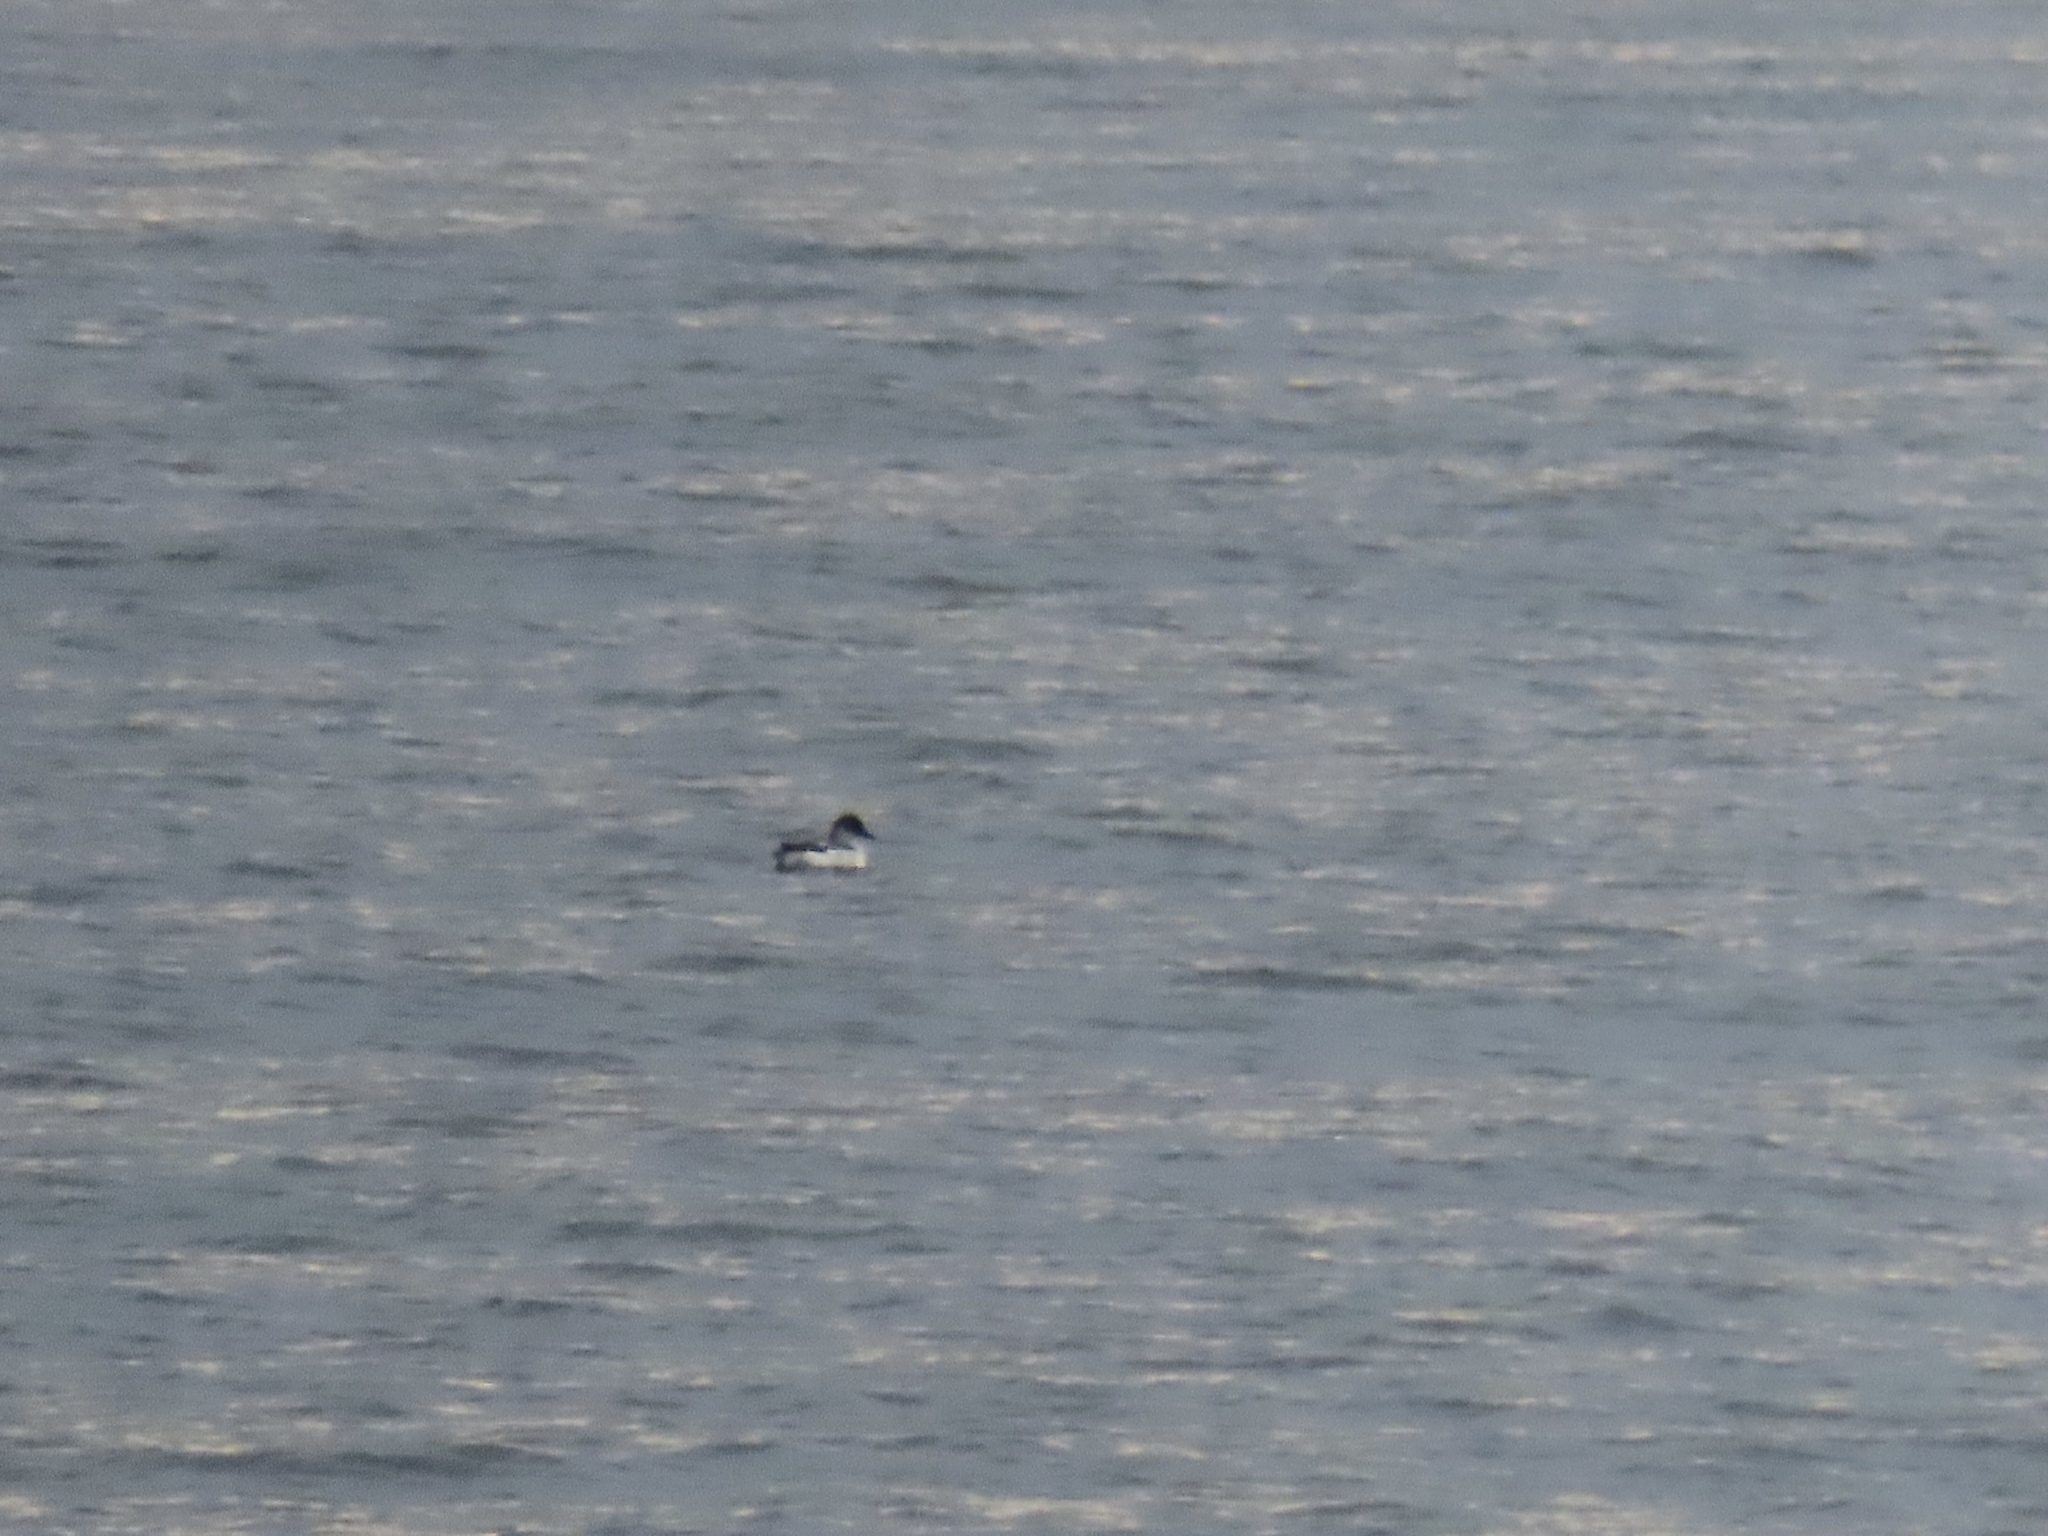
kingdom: Animalia
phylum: Chordata
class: Aves
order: Charadriiformes
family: Alcidae
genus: Cepphus
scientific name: Cepphus columba
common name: Pigeon guillemot
